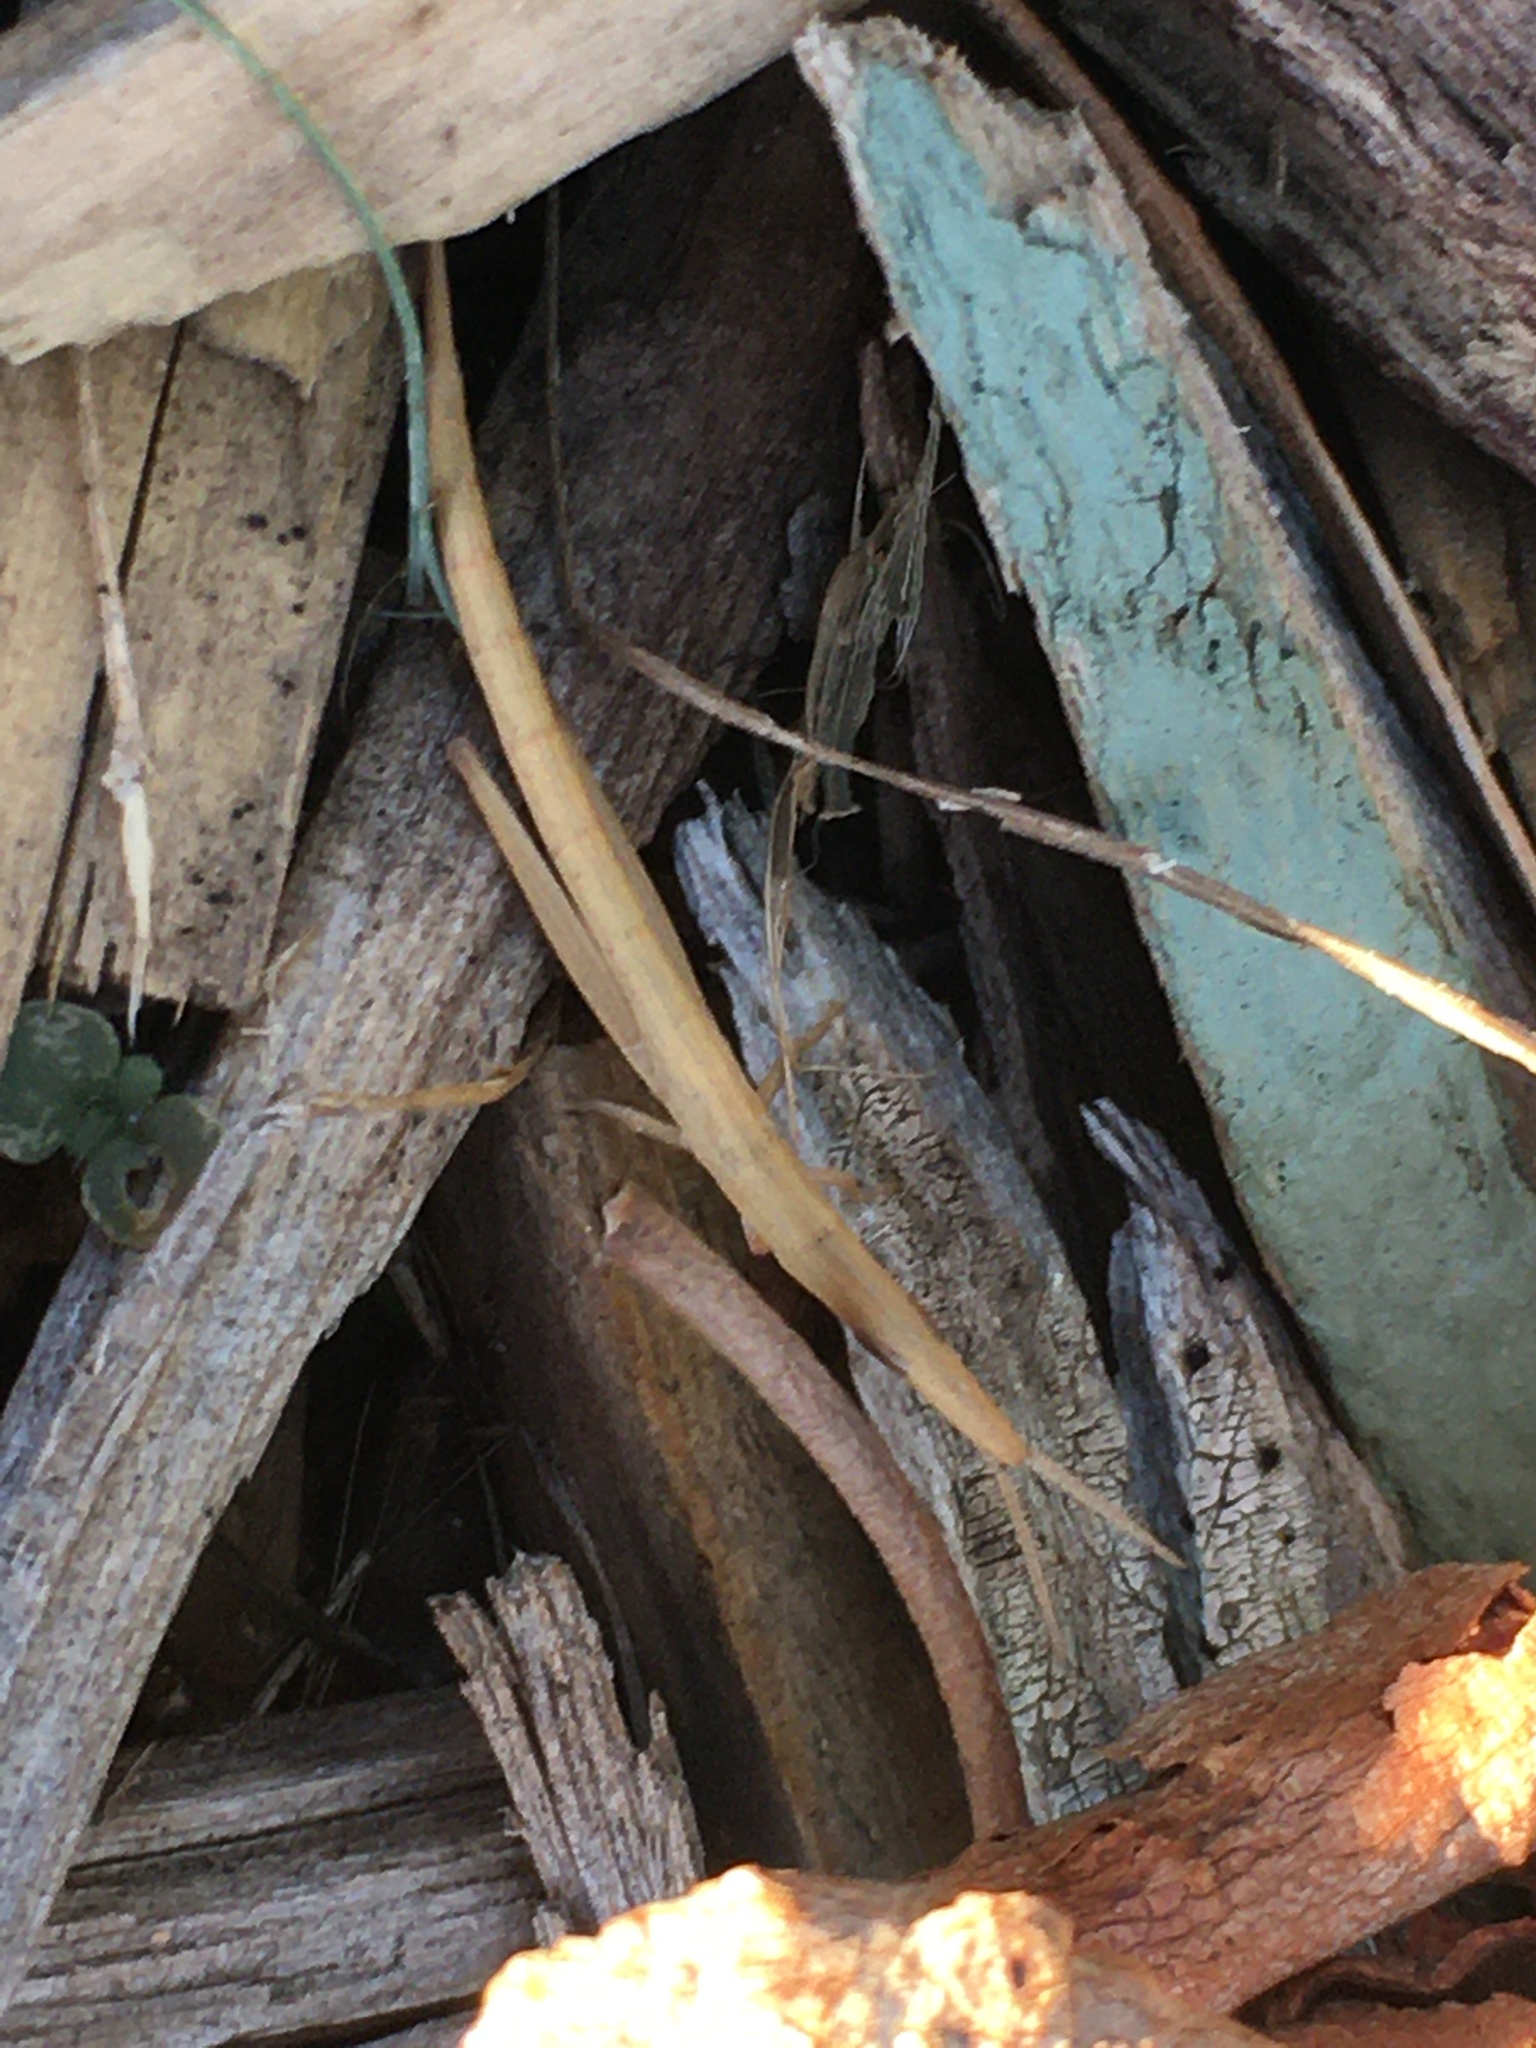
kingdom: Animalia
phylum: Arthropoda
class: Insecta
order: Orthoptera
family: Pyrgomorphidae
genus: Psednura
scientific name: Psednura pedestris
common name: Common psednura
